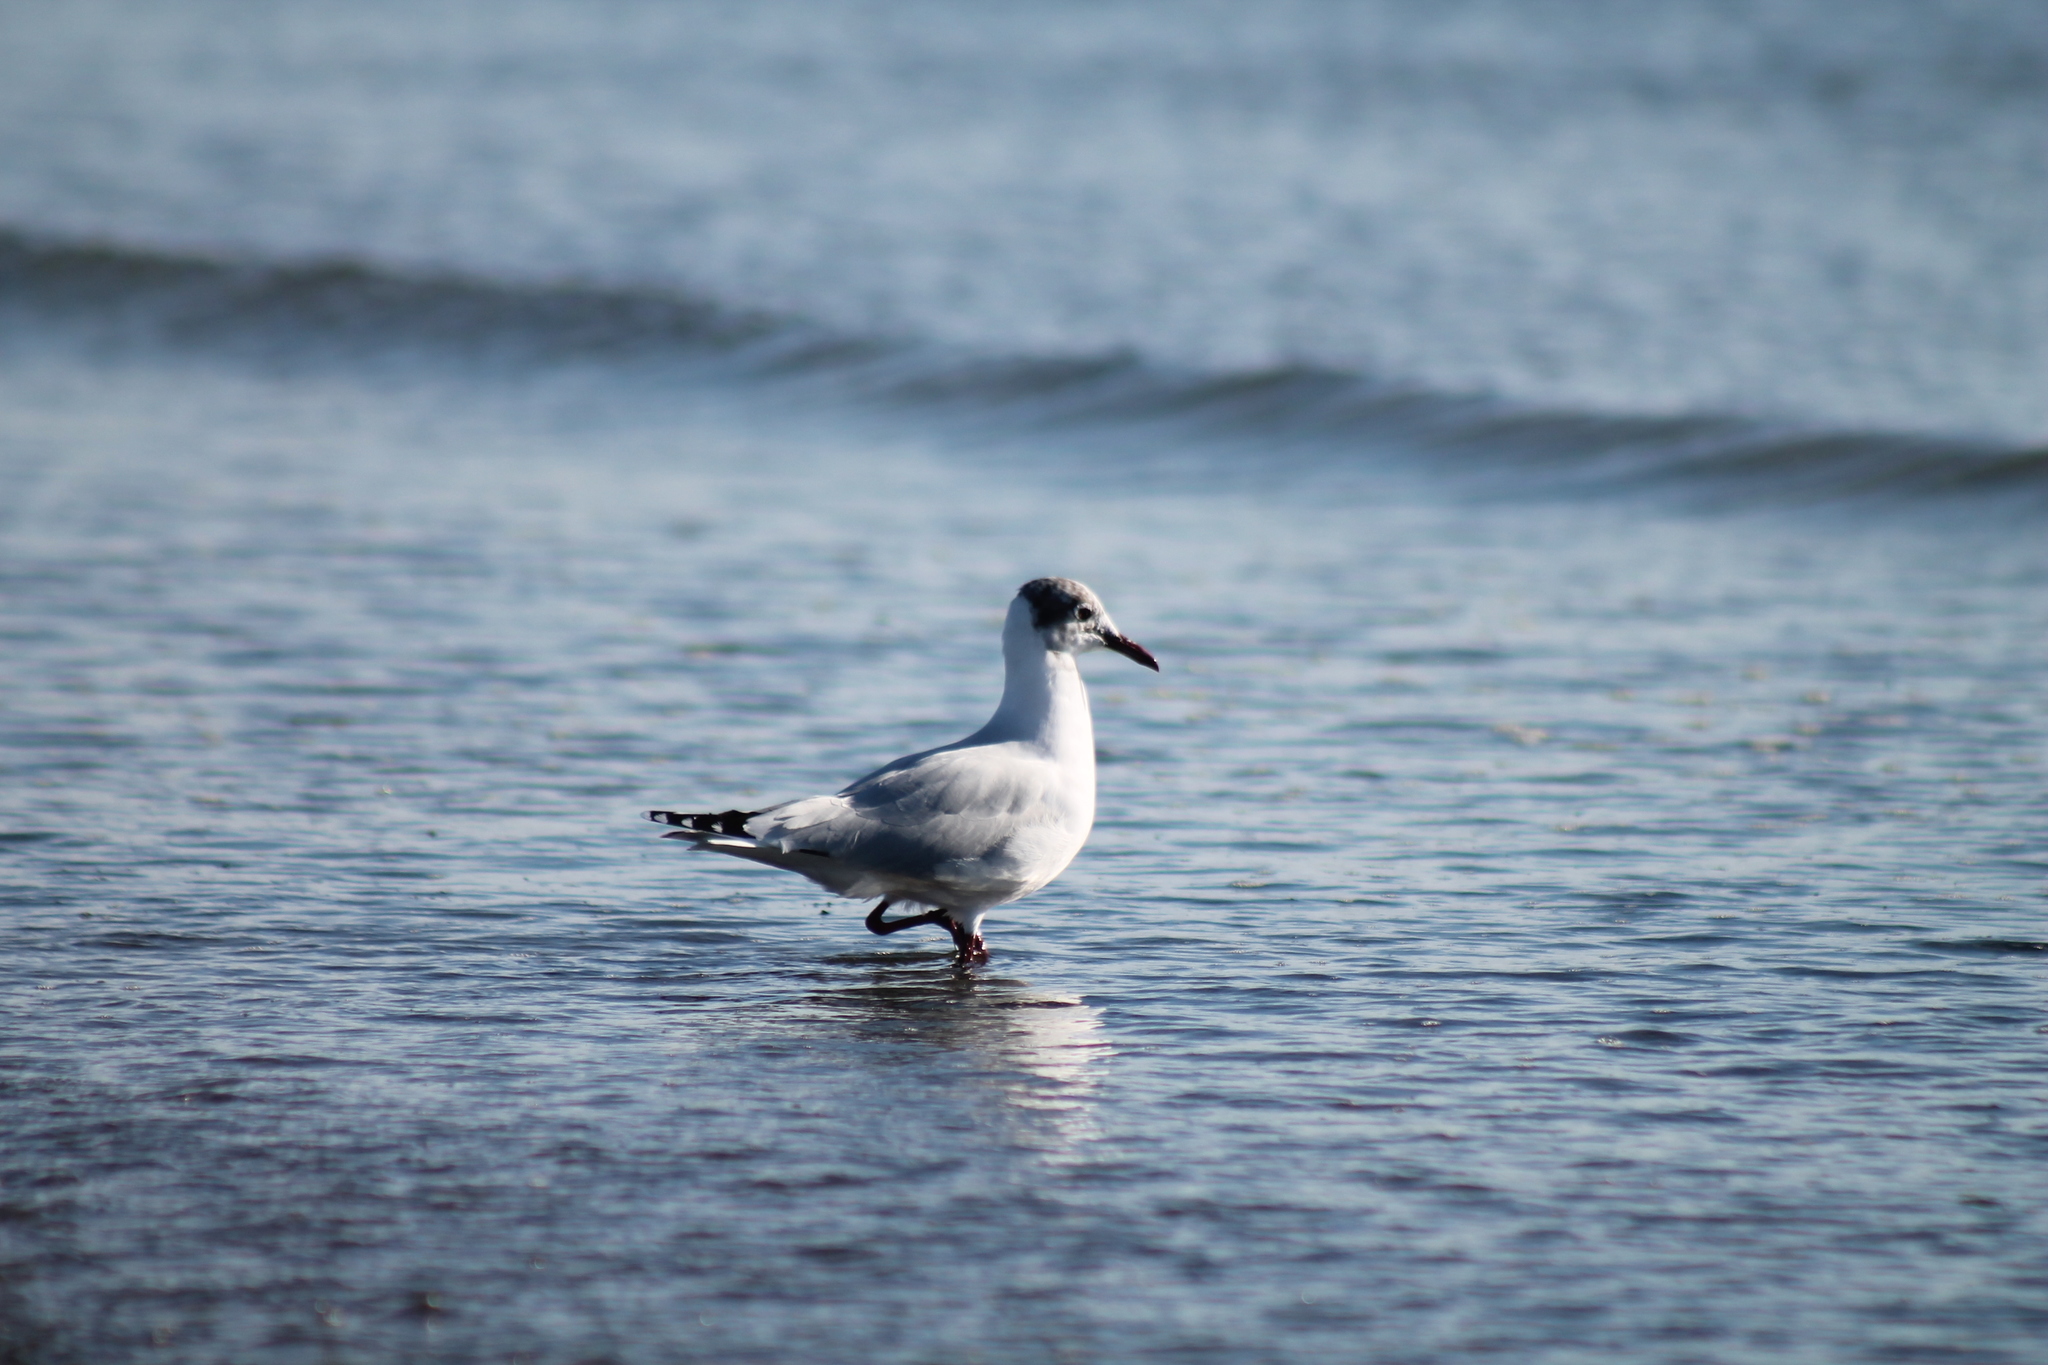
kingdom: Animalia
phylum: Chordata
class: Aves
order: Charadriiformes
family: Laridae
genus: Chroicocephalus
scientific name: Chroicocephalus maculipennis
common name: Brown-hooded gull
